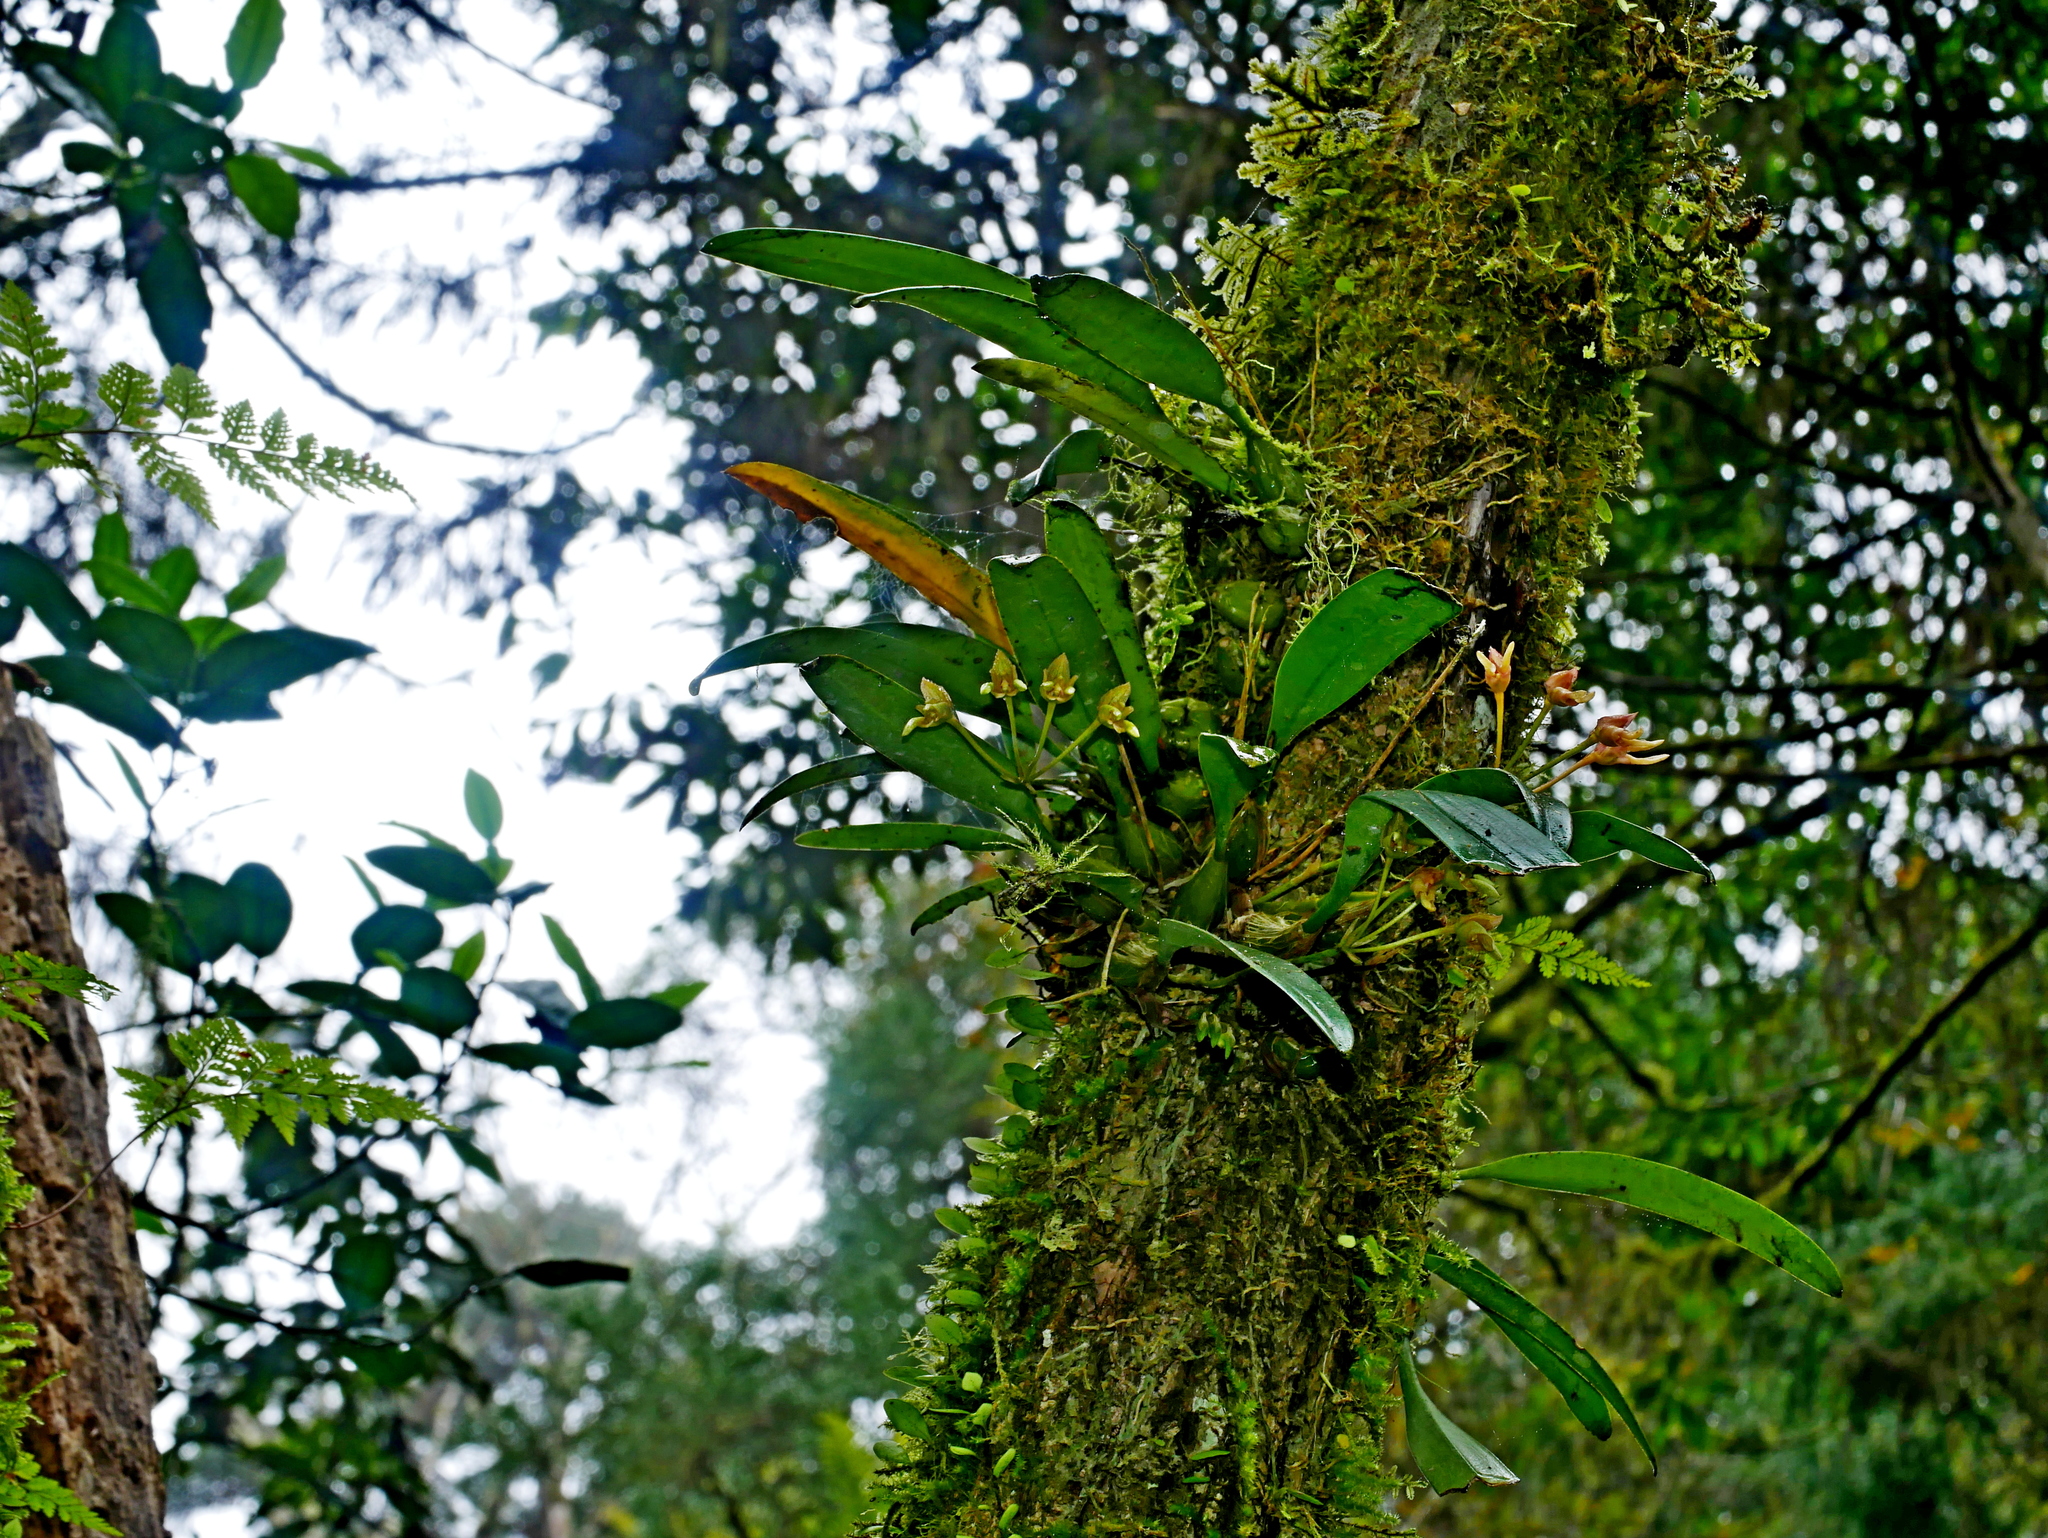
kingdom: Plantae
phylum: Tracheophyta
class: Liliopsida
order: Asparagales
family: Orchidaceae
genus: Bulbophyllum
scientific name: Bulbophyllum umbellatum
